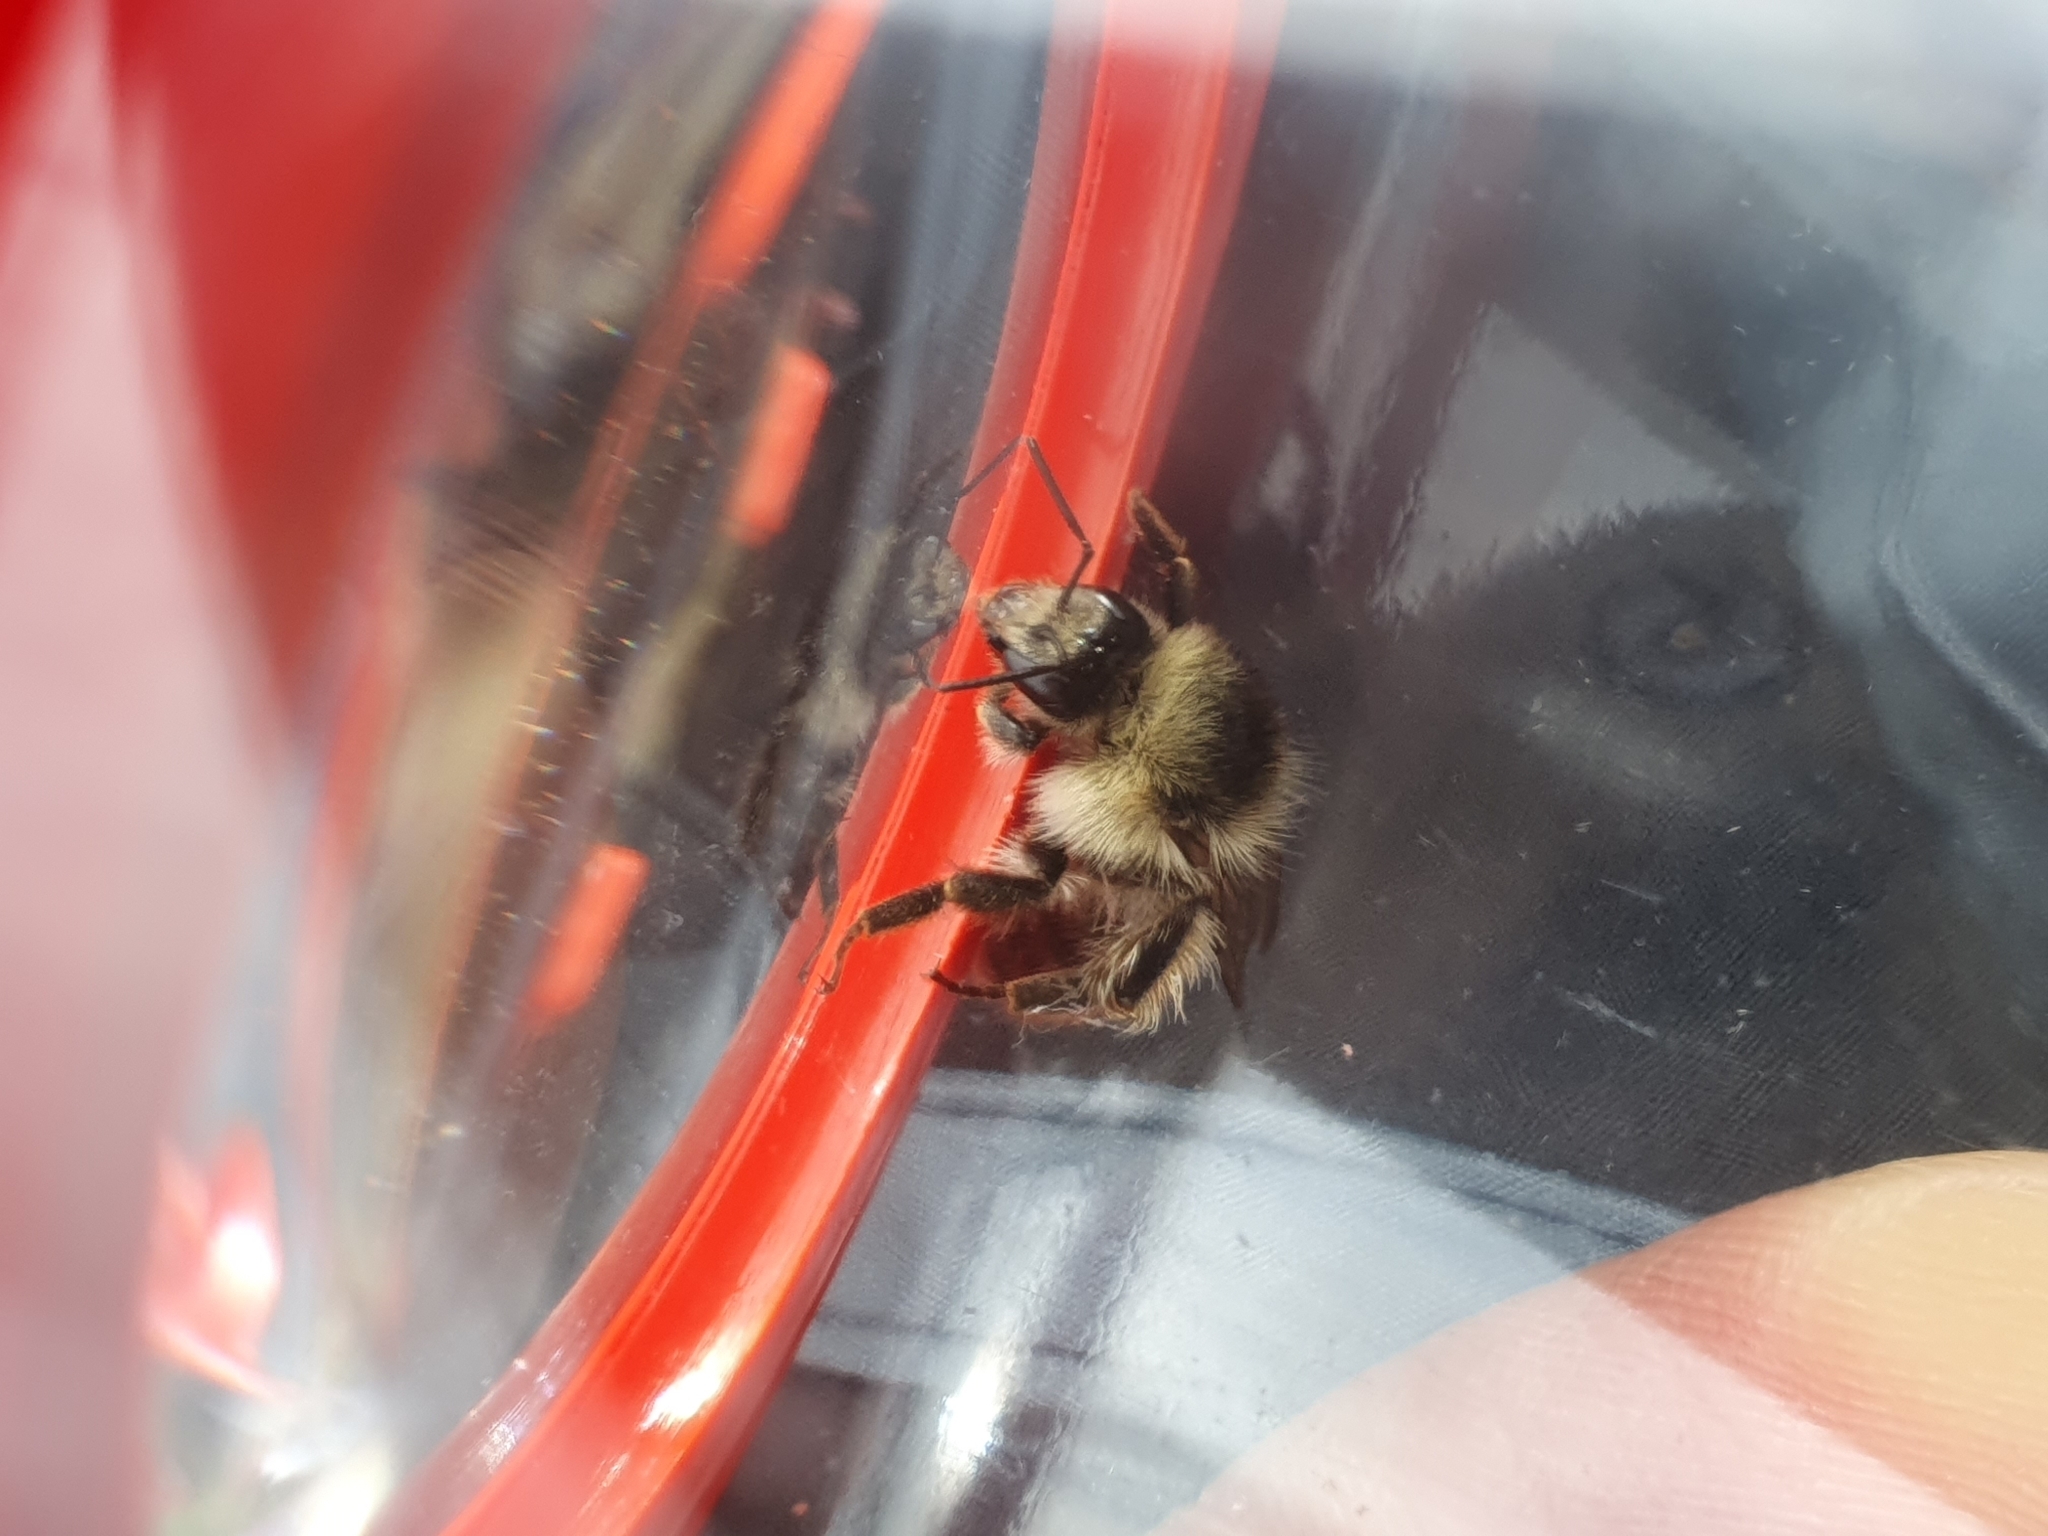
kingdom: Animalia
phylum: Arthropoda
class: Insecta
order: Hymenoptera
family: Apidae
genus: Bombus
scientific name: Bombus sylvarum
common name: Shrill carder bee
